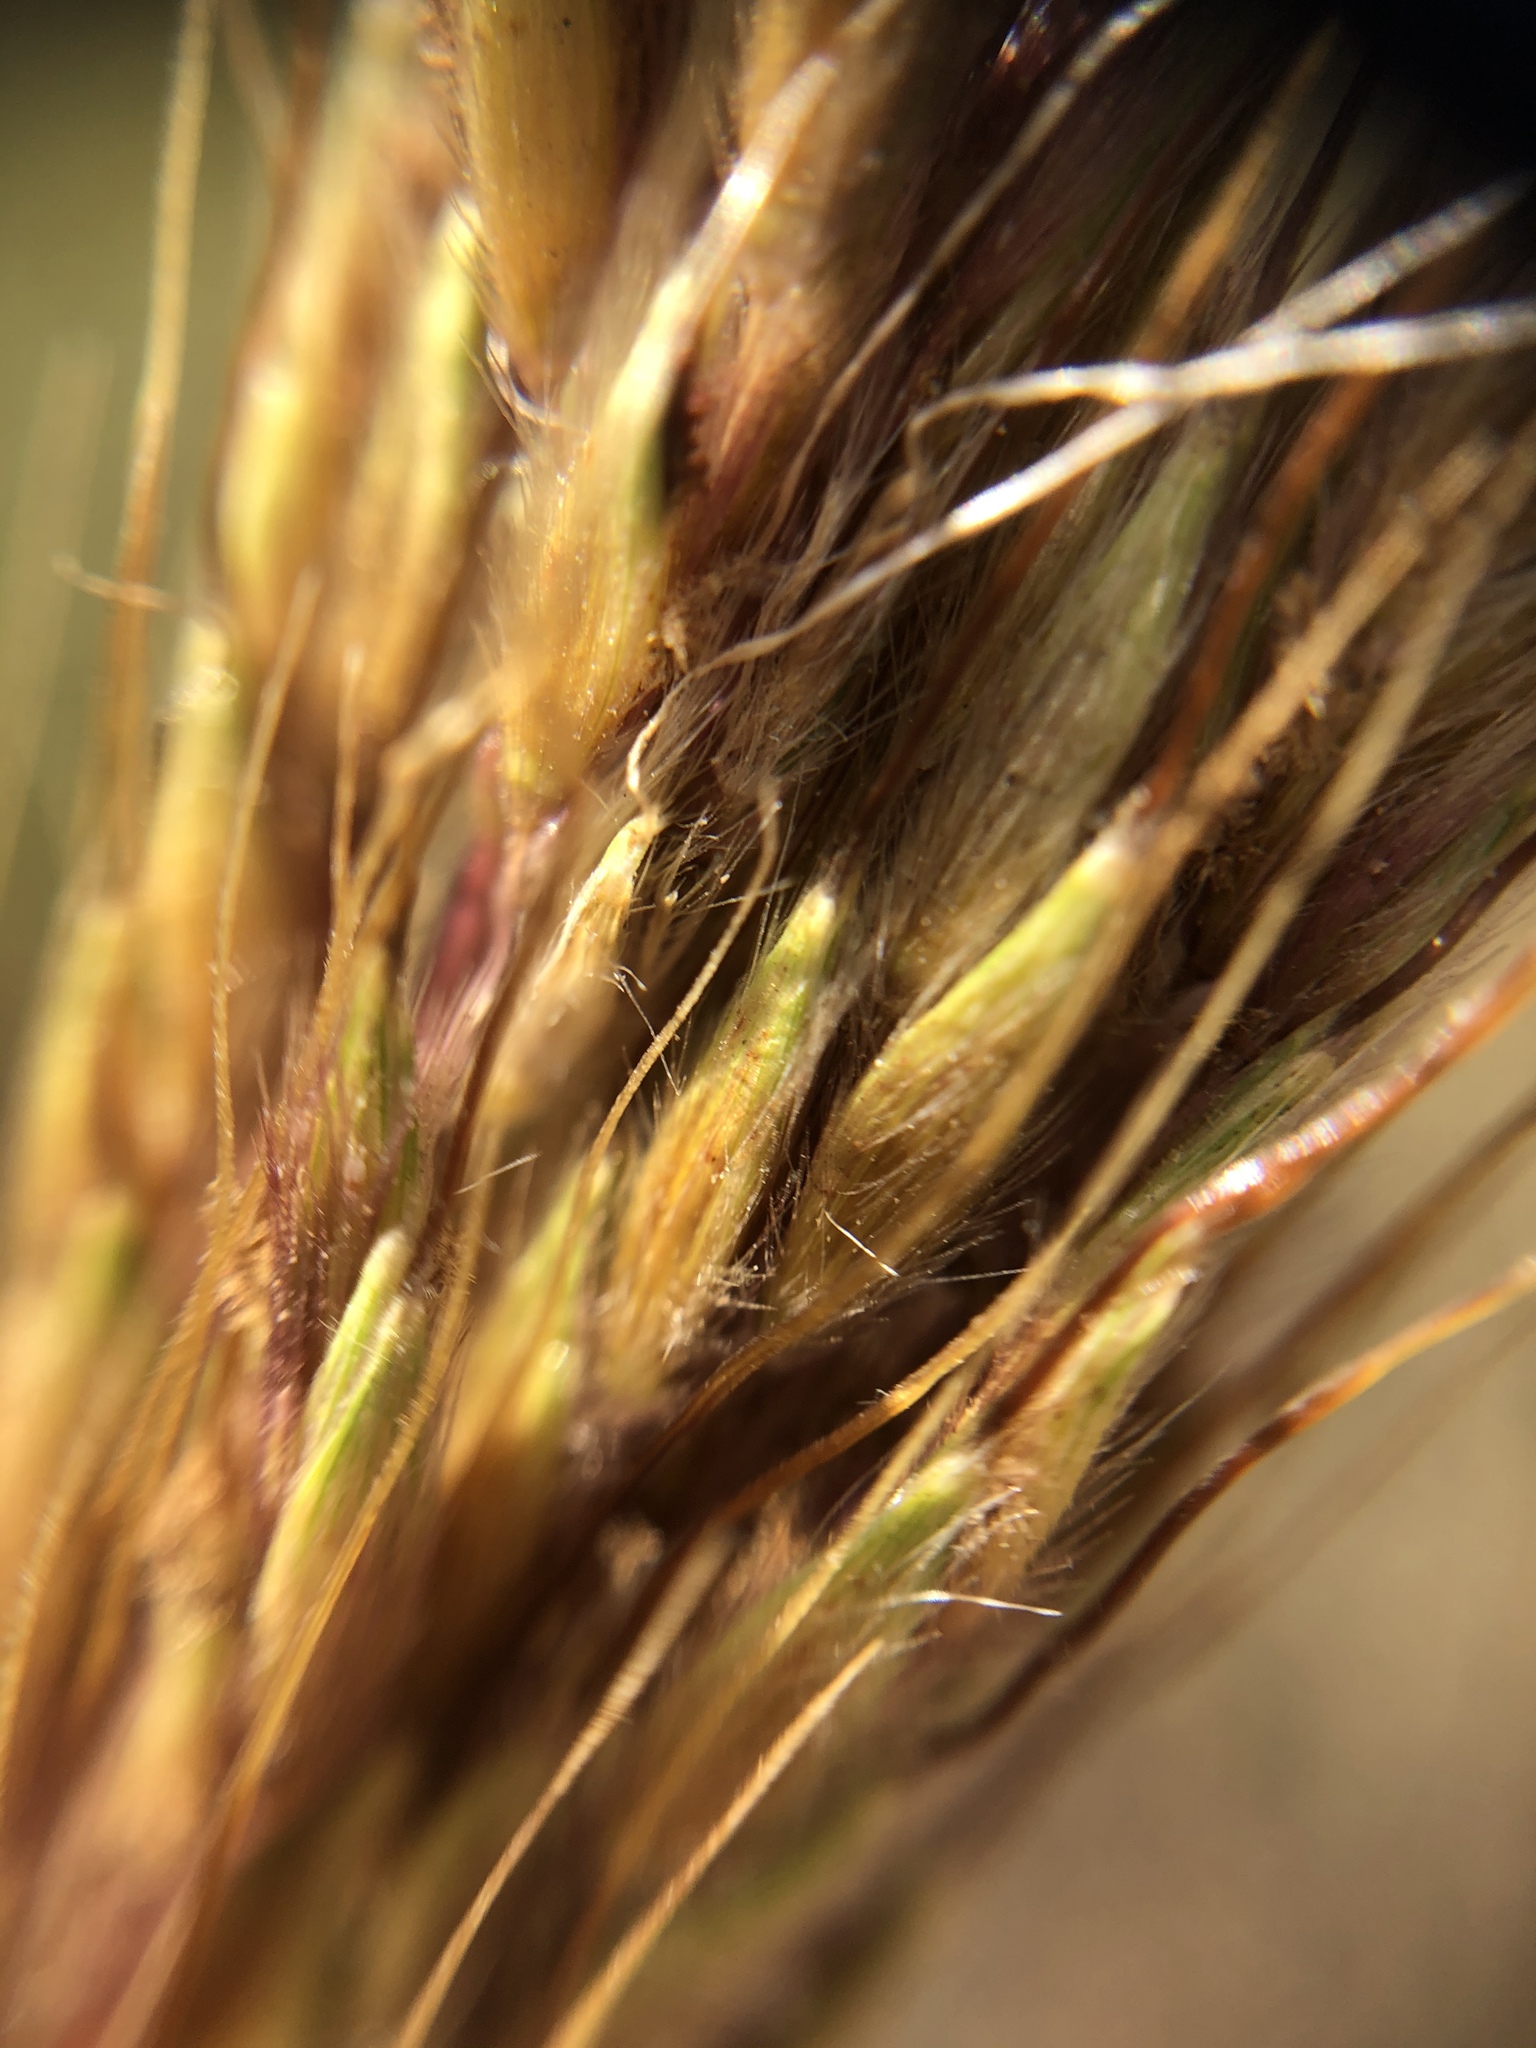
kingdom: Plantae
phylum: Tracheophyta
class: Liliopsida
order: Poales
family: Poaceae
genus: Sorghastrum
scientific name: Sorghastrum nutans
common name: Indian grass
